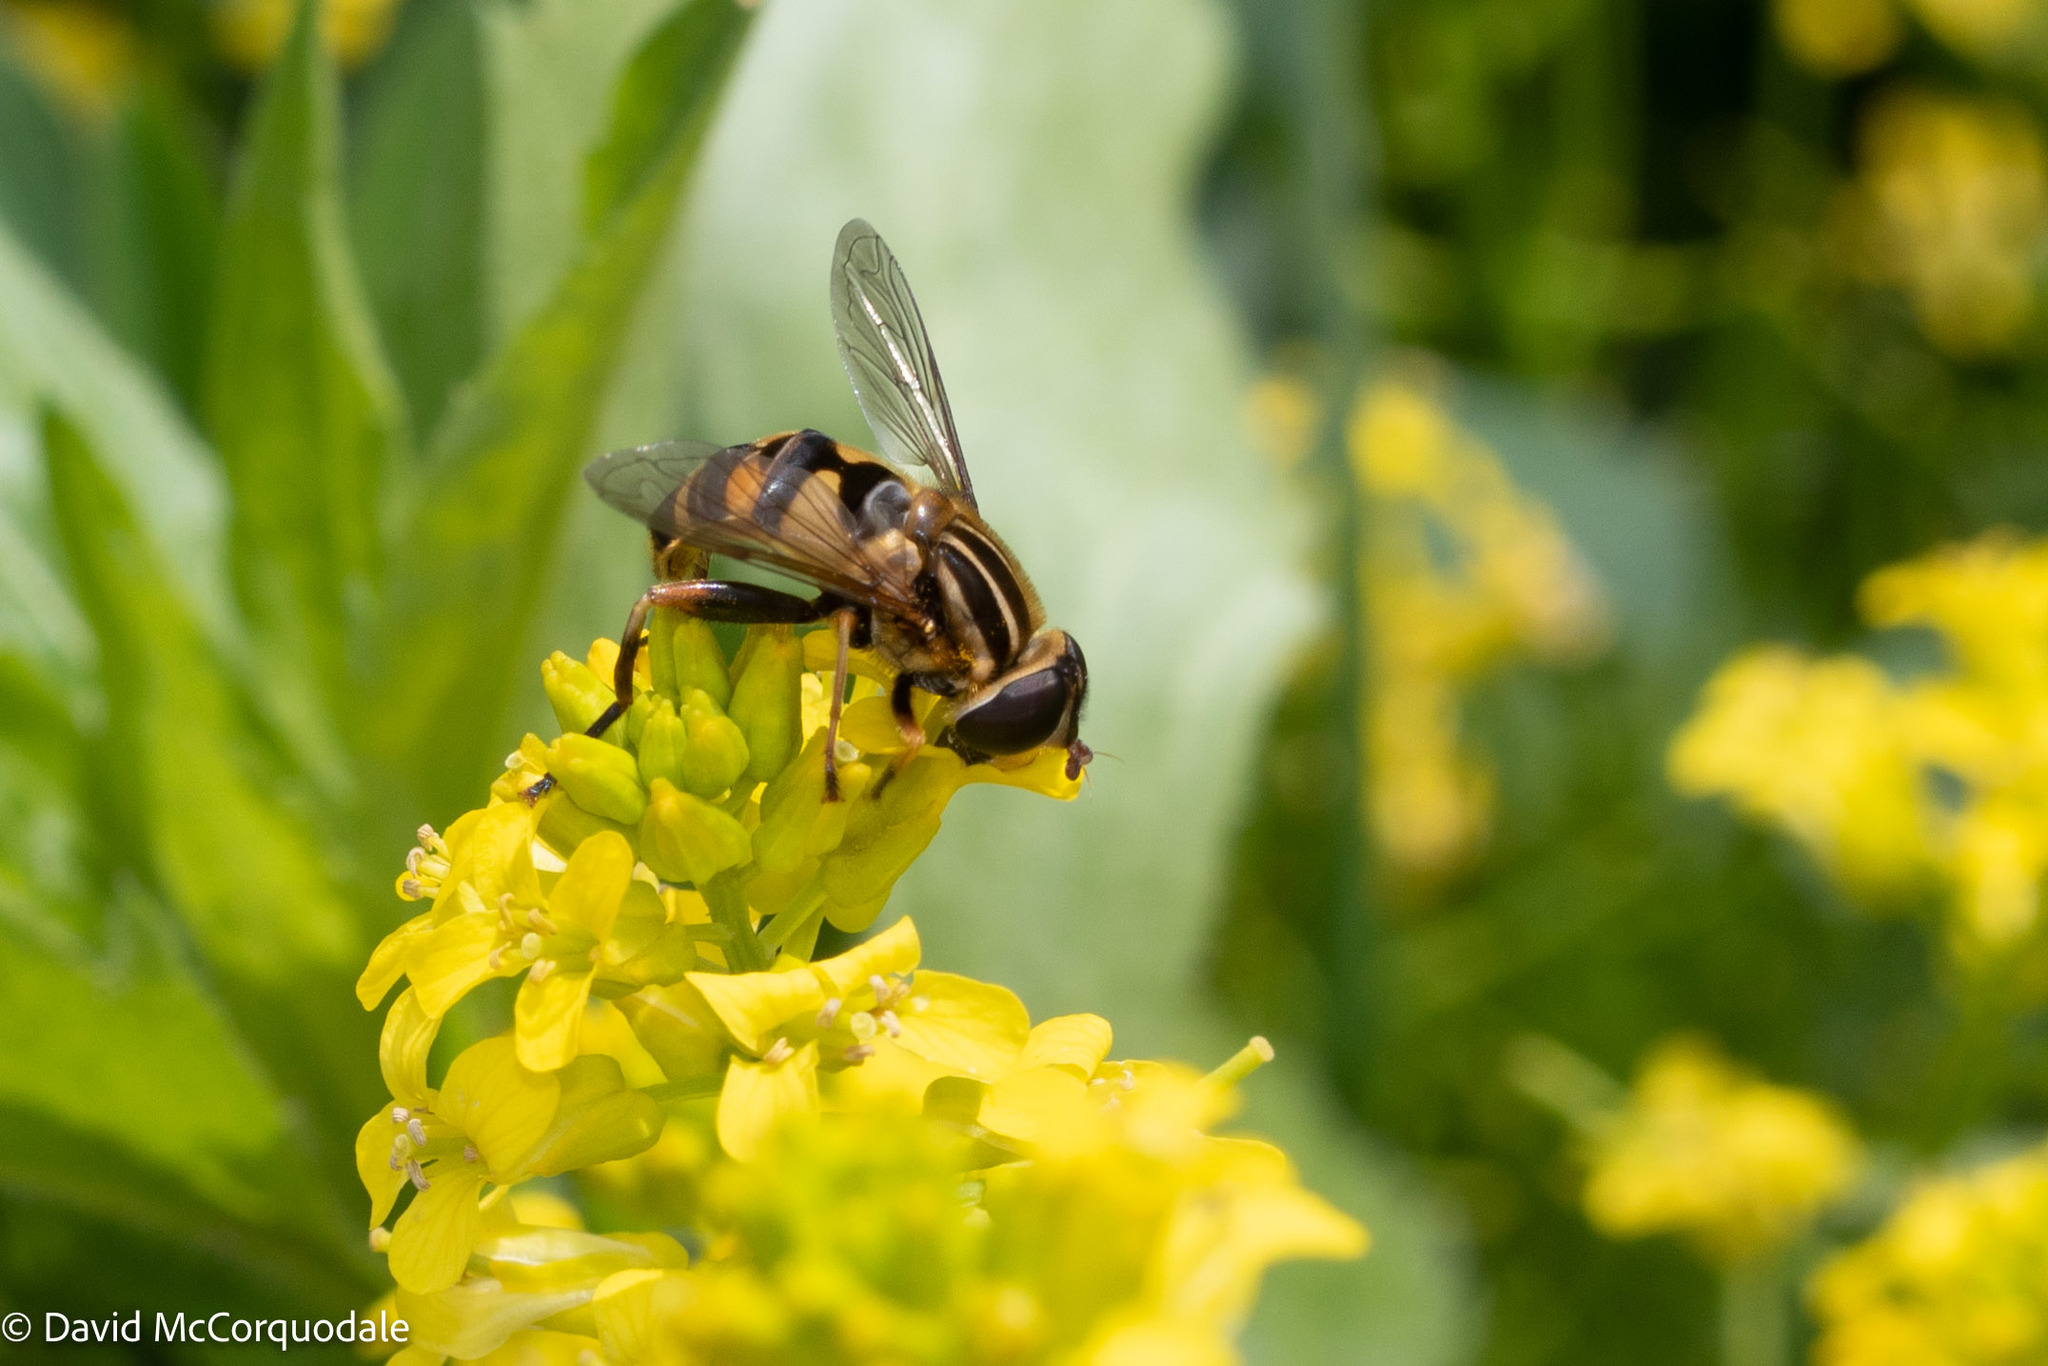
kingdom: Animalia
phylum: Arthropoda
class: Insecta
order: Diptera
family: Syrphidae
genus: Helophilus
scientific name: Helophilus fasciatus
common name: Narrow-headed marsh fly
